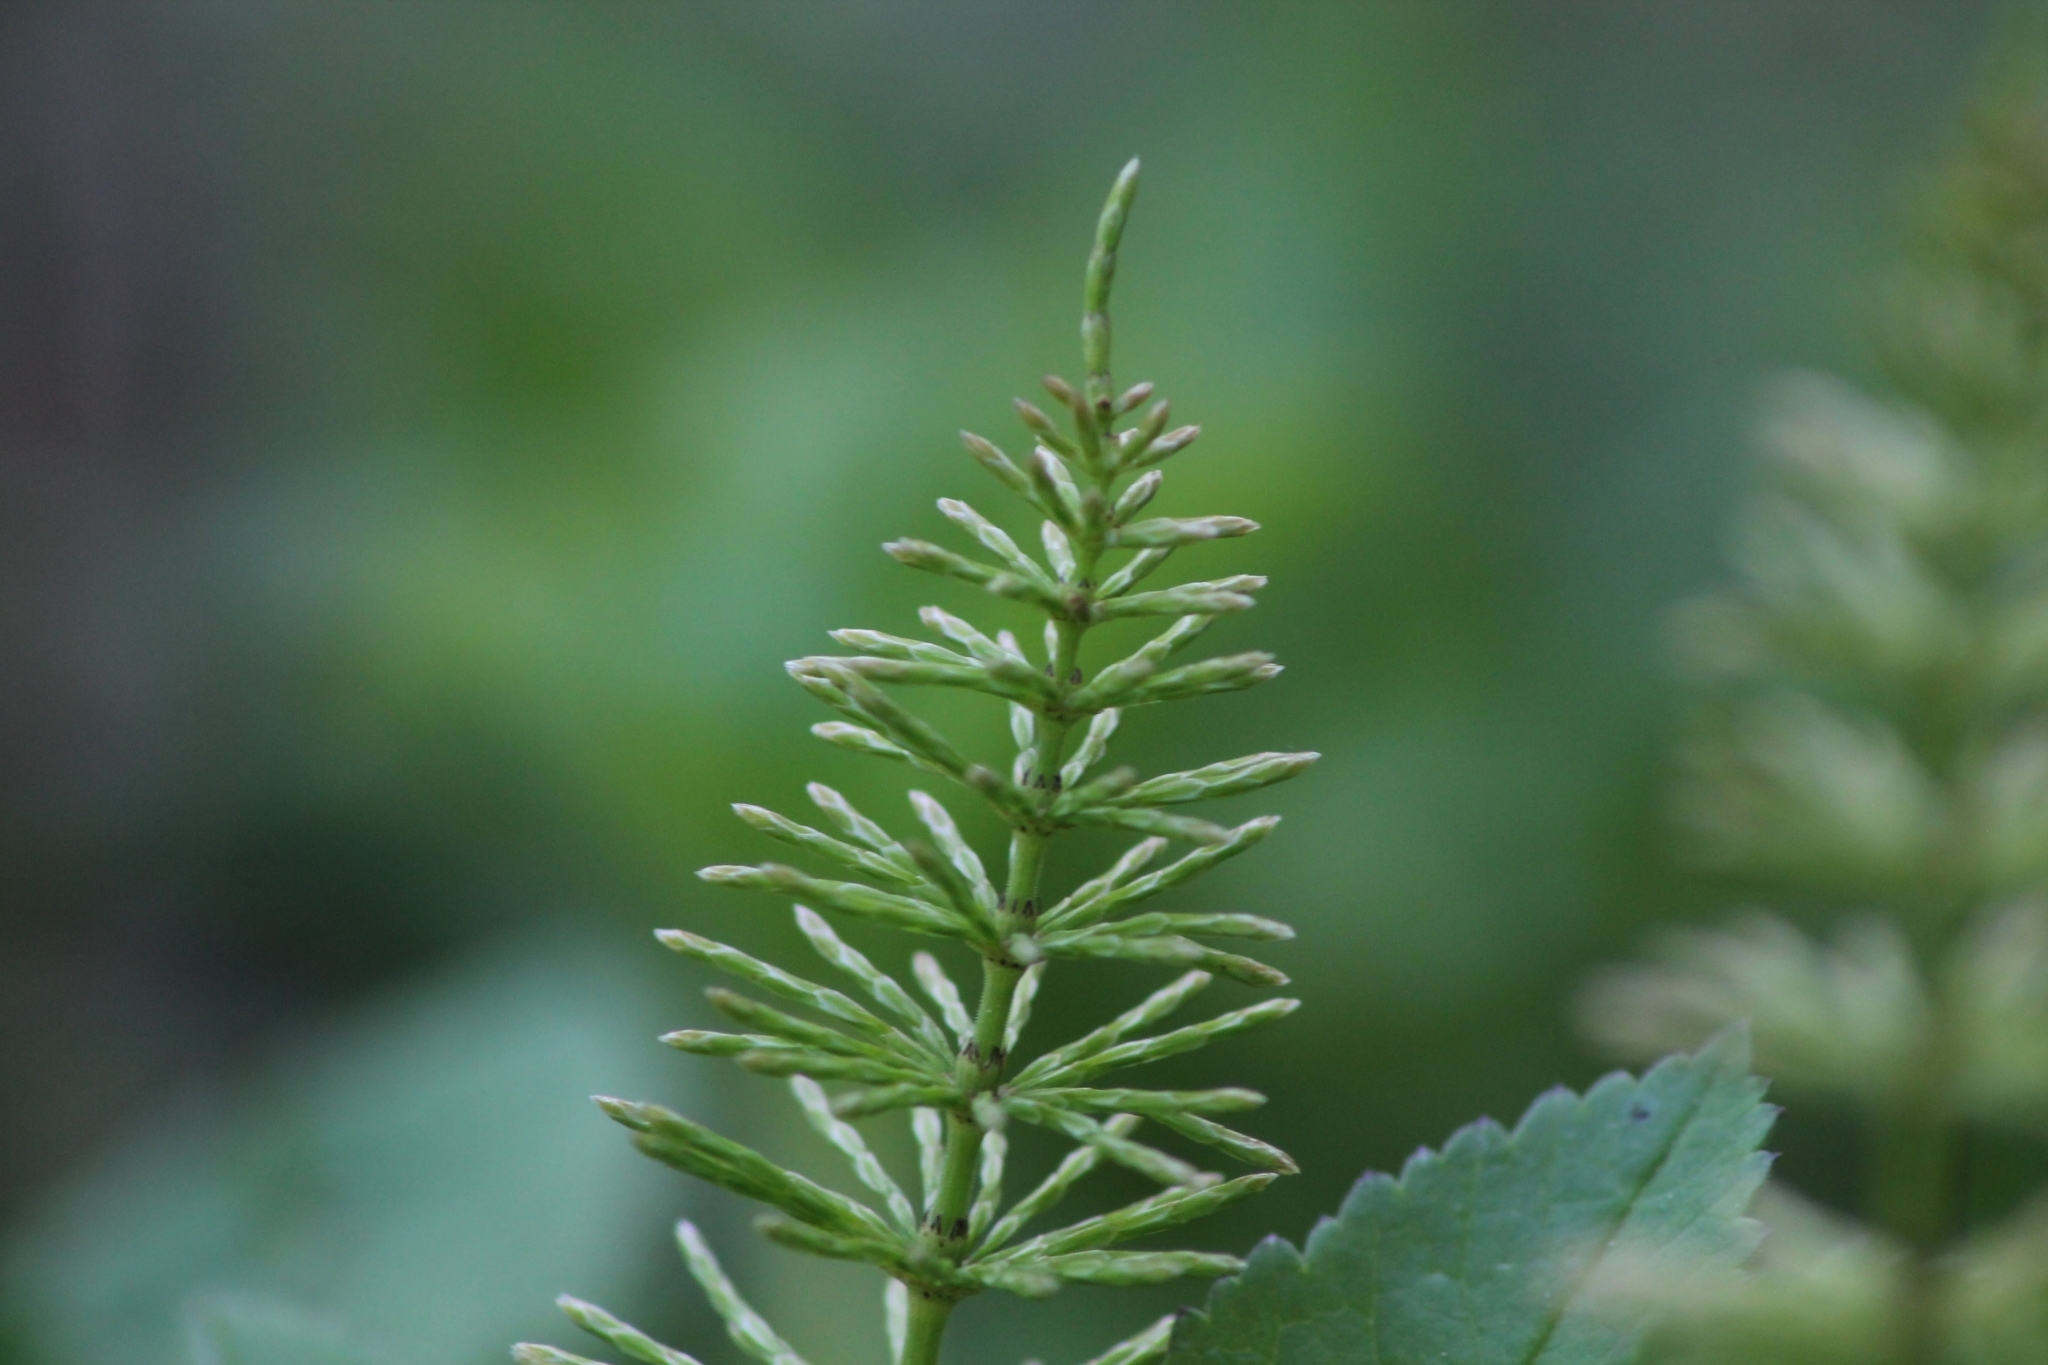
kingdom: Plantae
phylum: Tracheophyta
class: Polypodiopsida
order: Equisetales
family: Equisetaceae
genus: Equisetum
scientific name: Equisetum pratense
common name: Meadow horsetail
